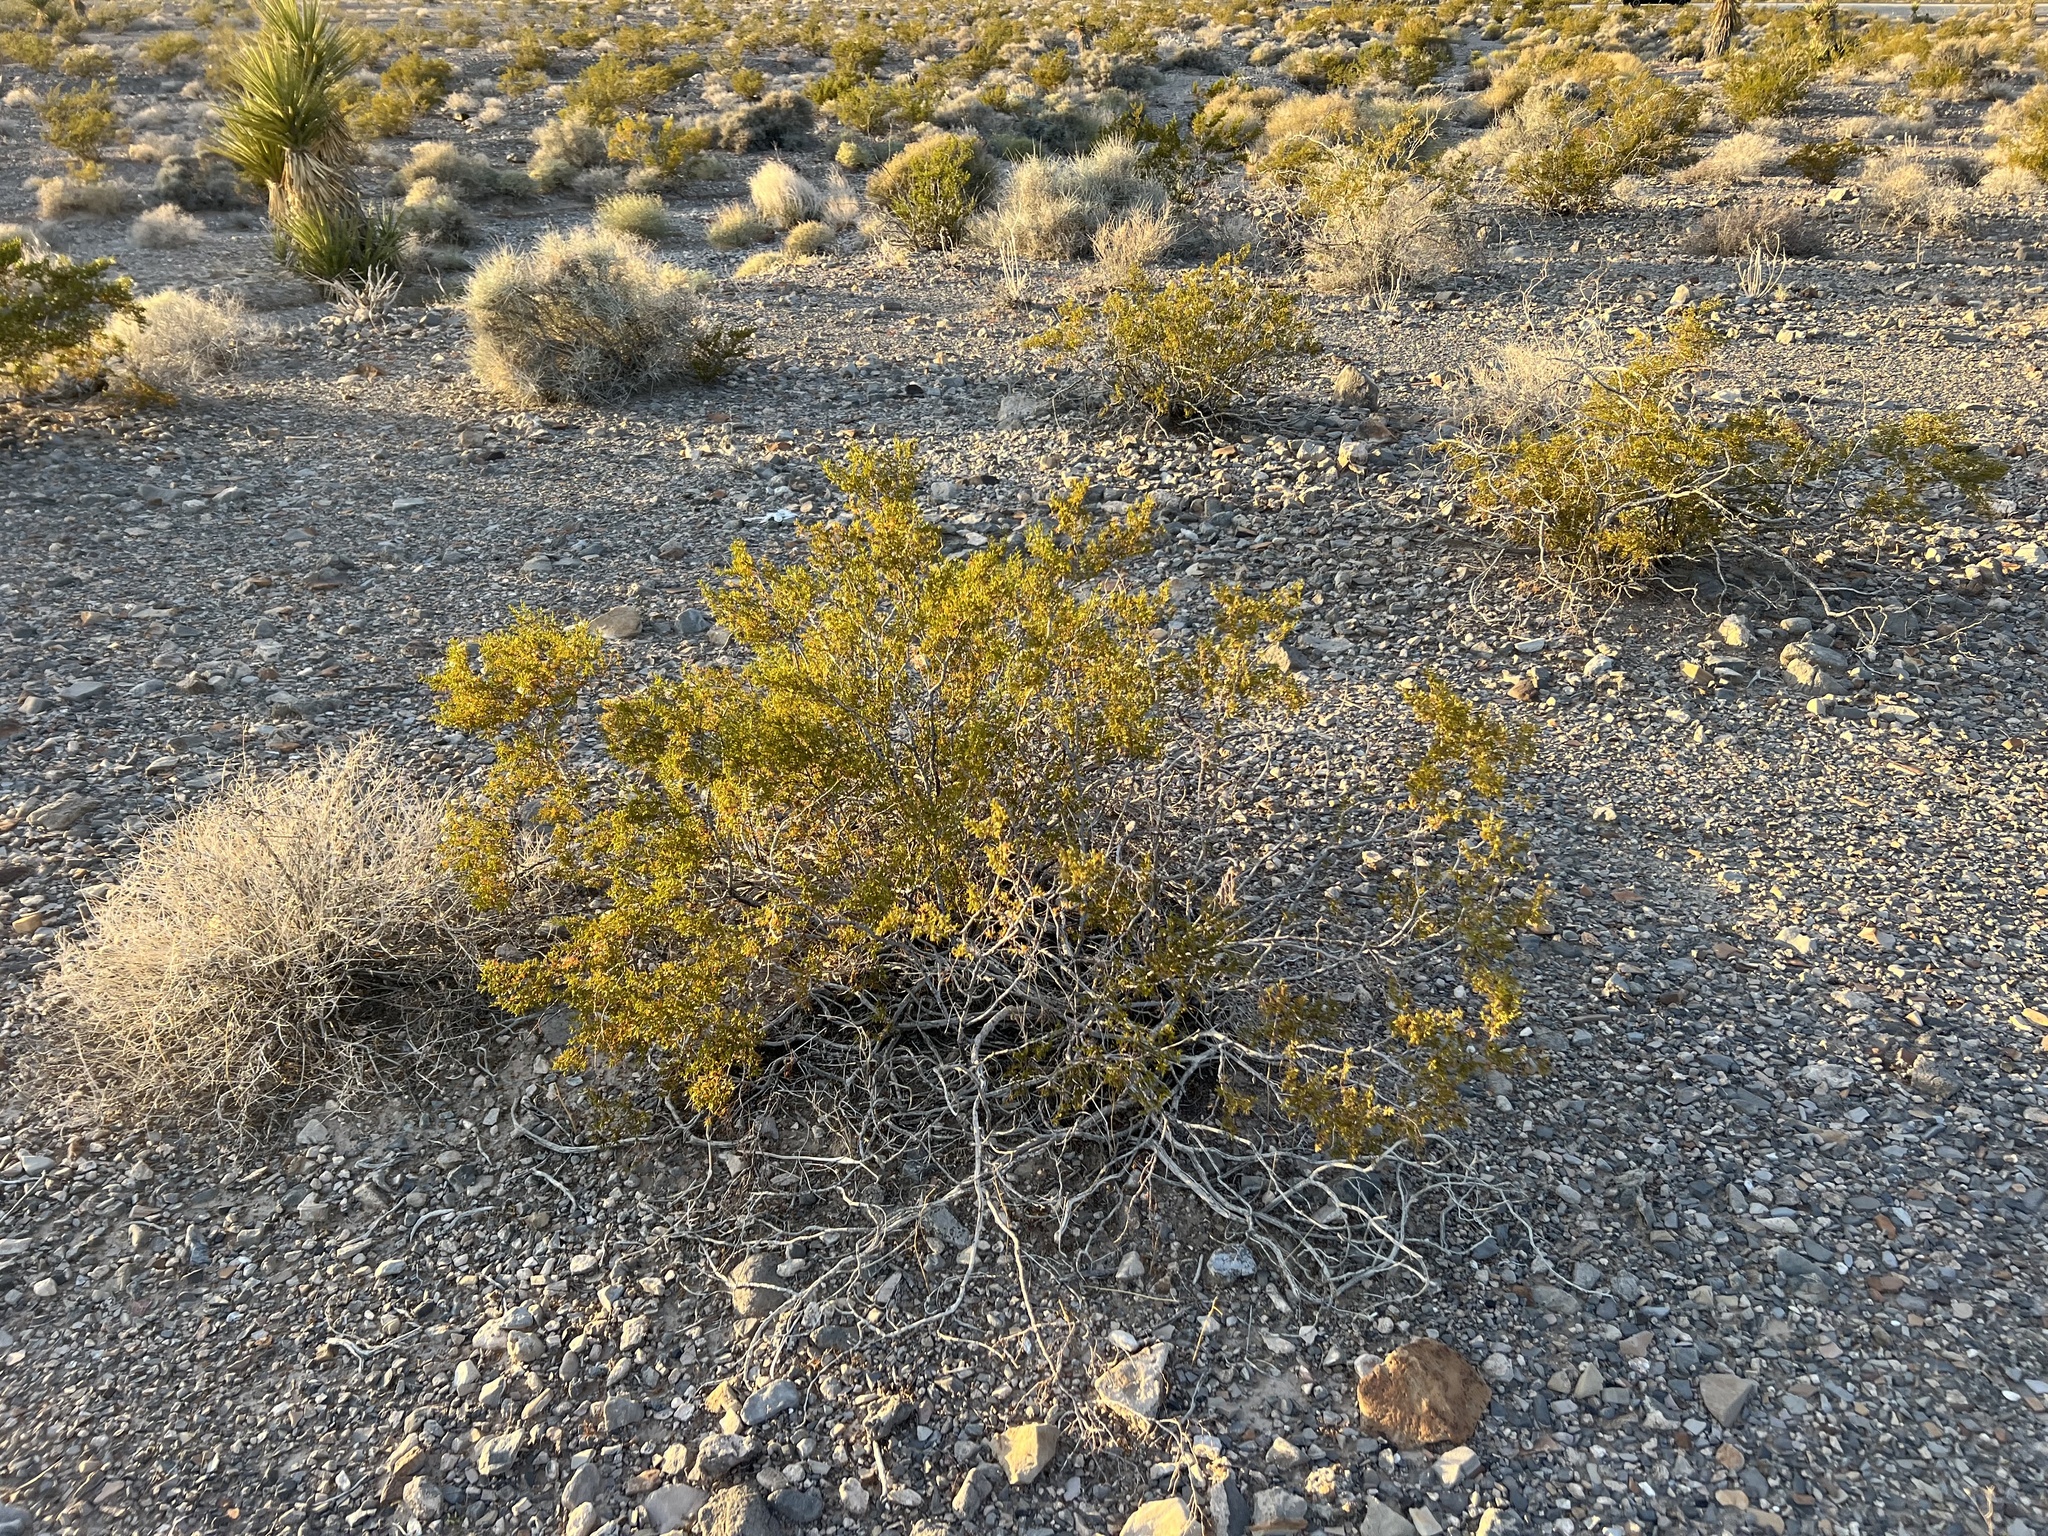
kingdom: Plantae
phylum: Tracheophyta
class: Magnoliopsida
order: Zygophyllales
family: Zygophyllaceae
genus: Larrea
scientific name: Larrea tridentata
